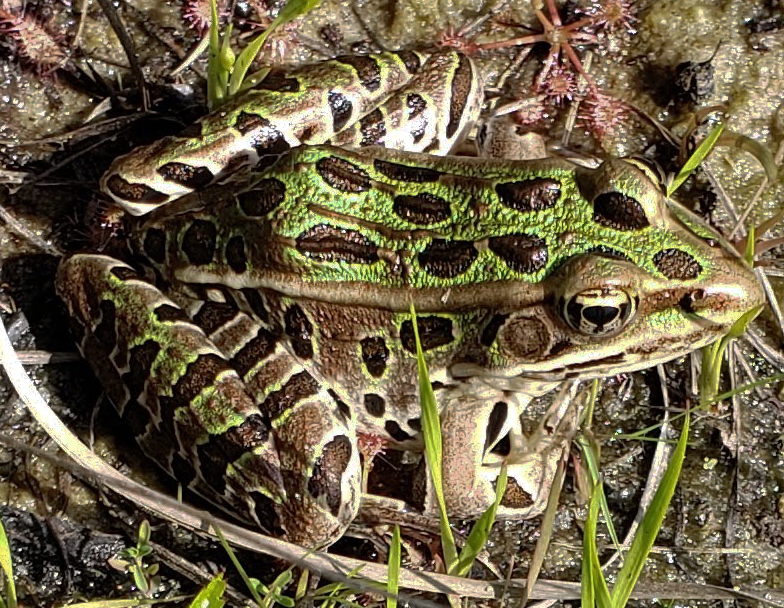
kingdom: Animalia
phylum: Chordata
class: Amphibia
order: Anura
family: Ranidae
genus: Lithobates
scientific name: Lithobates pipiens
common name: Northern leopard frog
